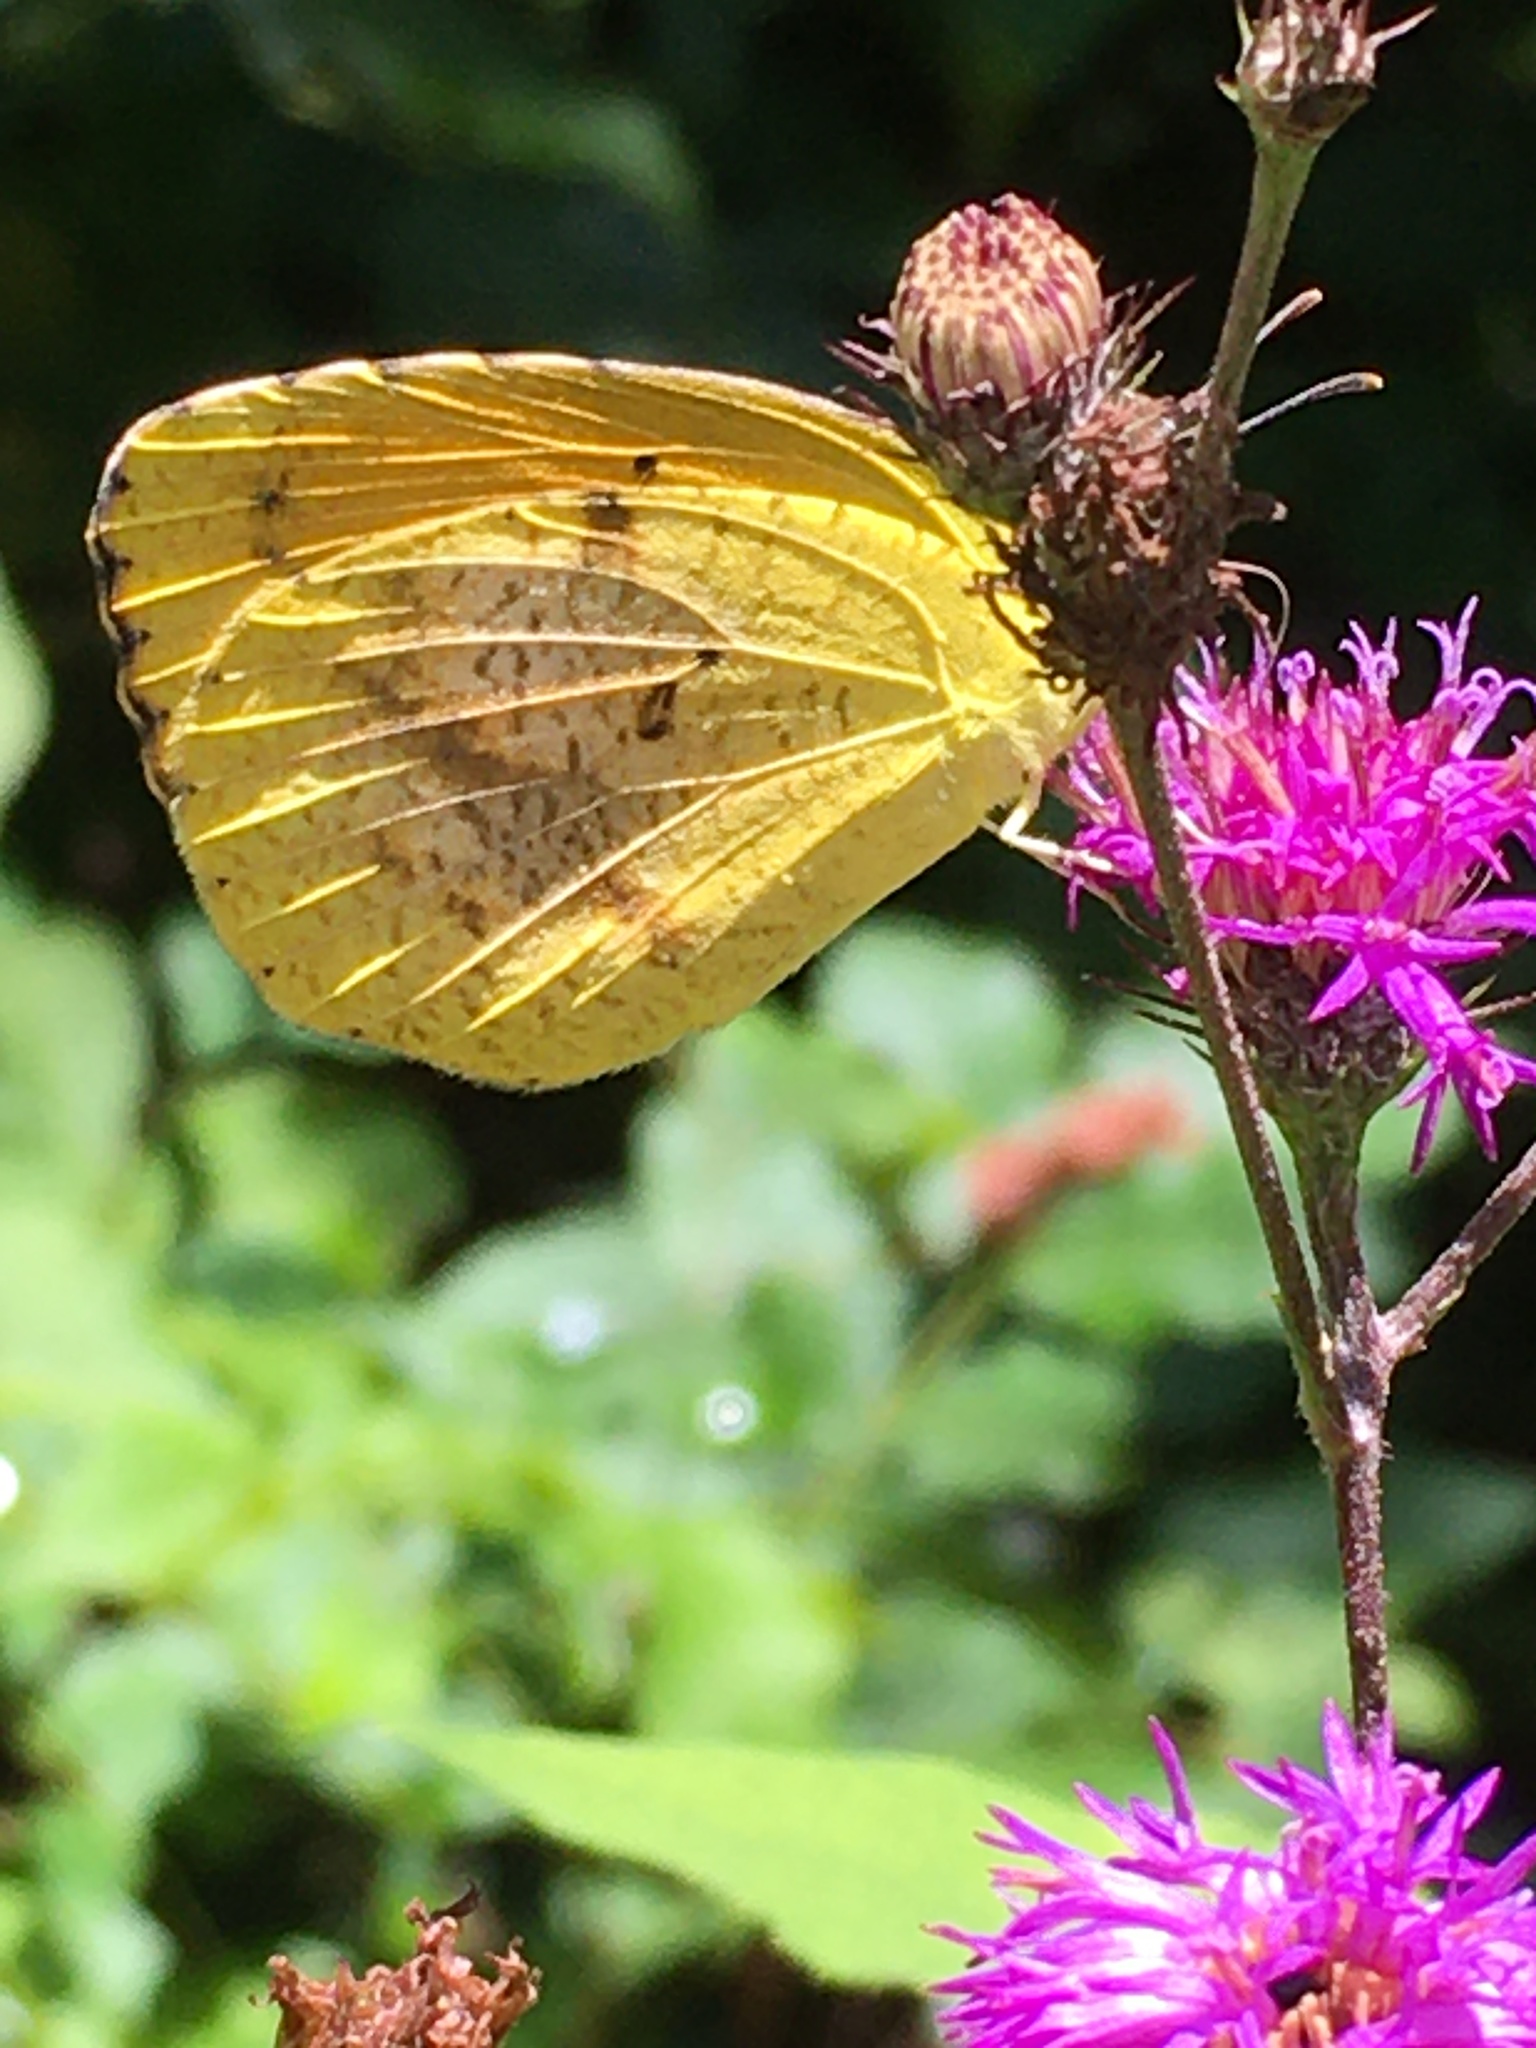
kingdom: Animalia
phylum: Arthropoda
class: Insecta
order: Lepidoptera
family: Pieridae
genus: Abaeis
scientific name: Abaeis nicippe
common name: Sleepy orange
